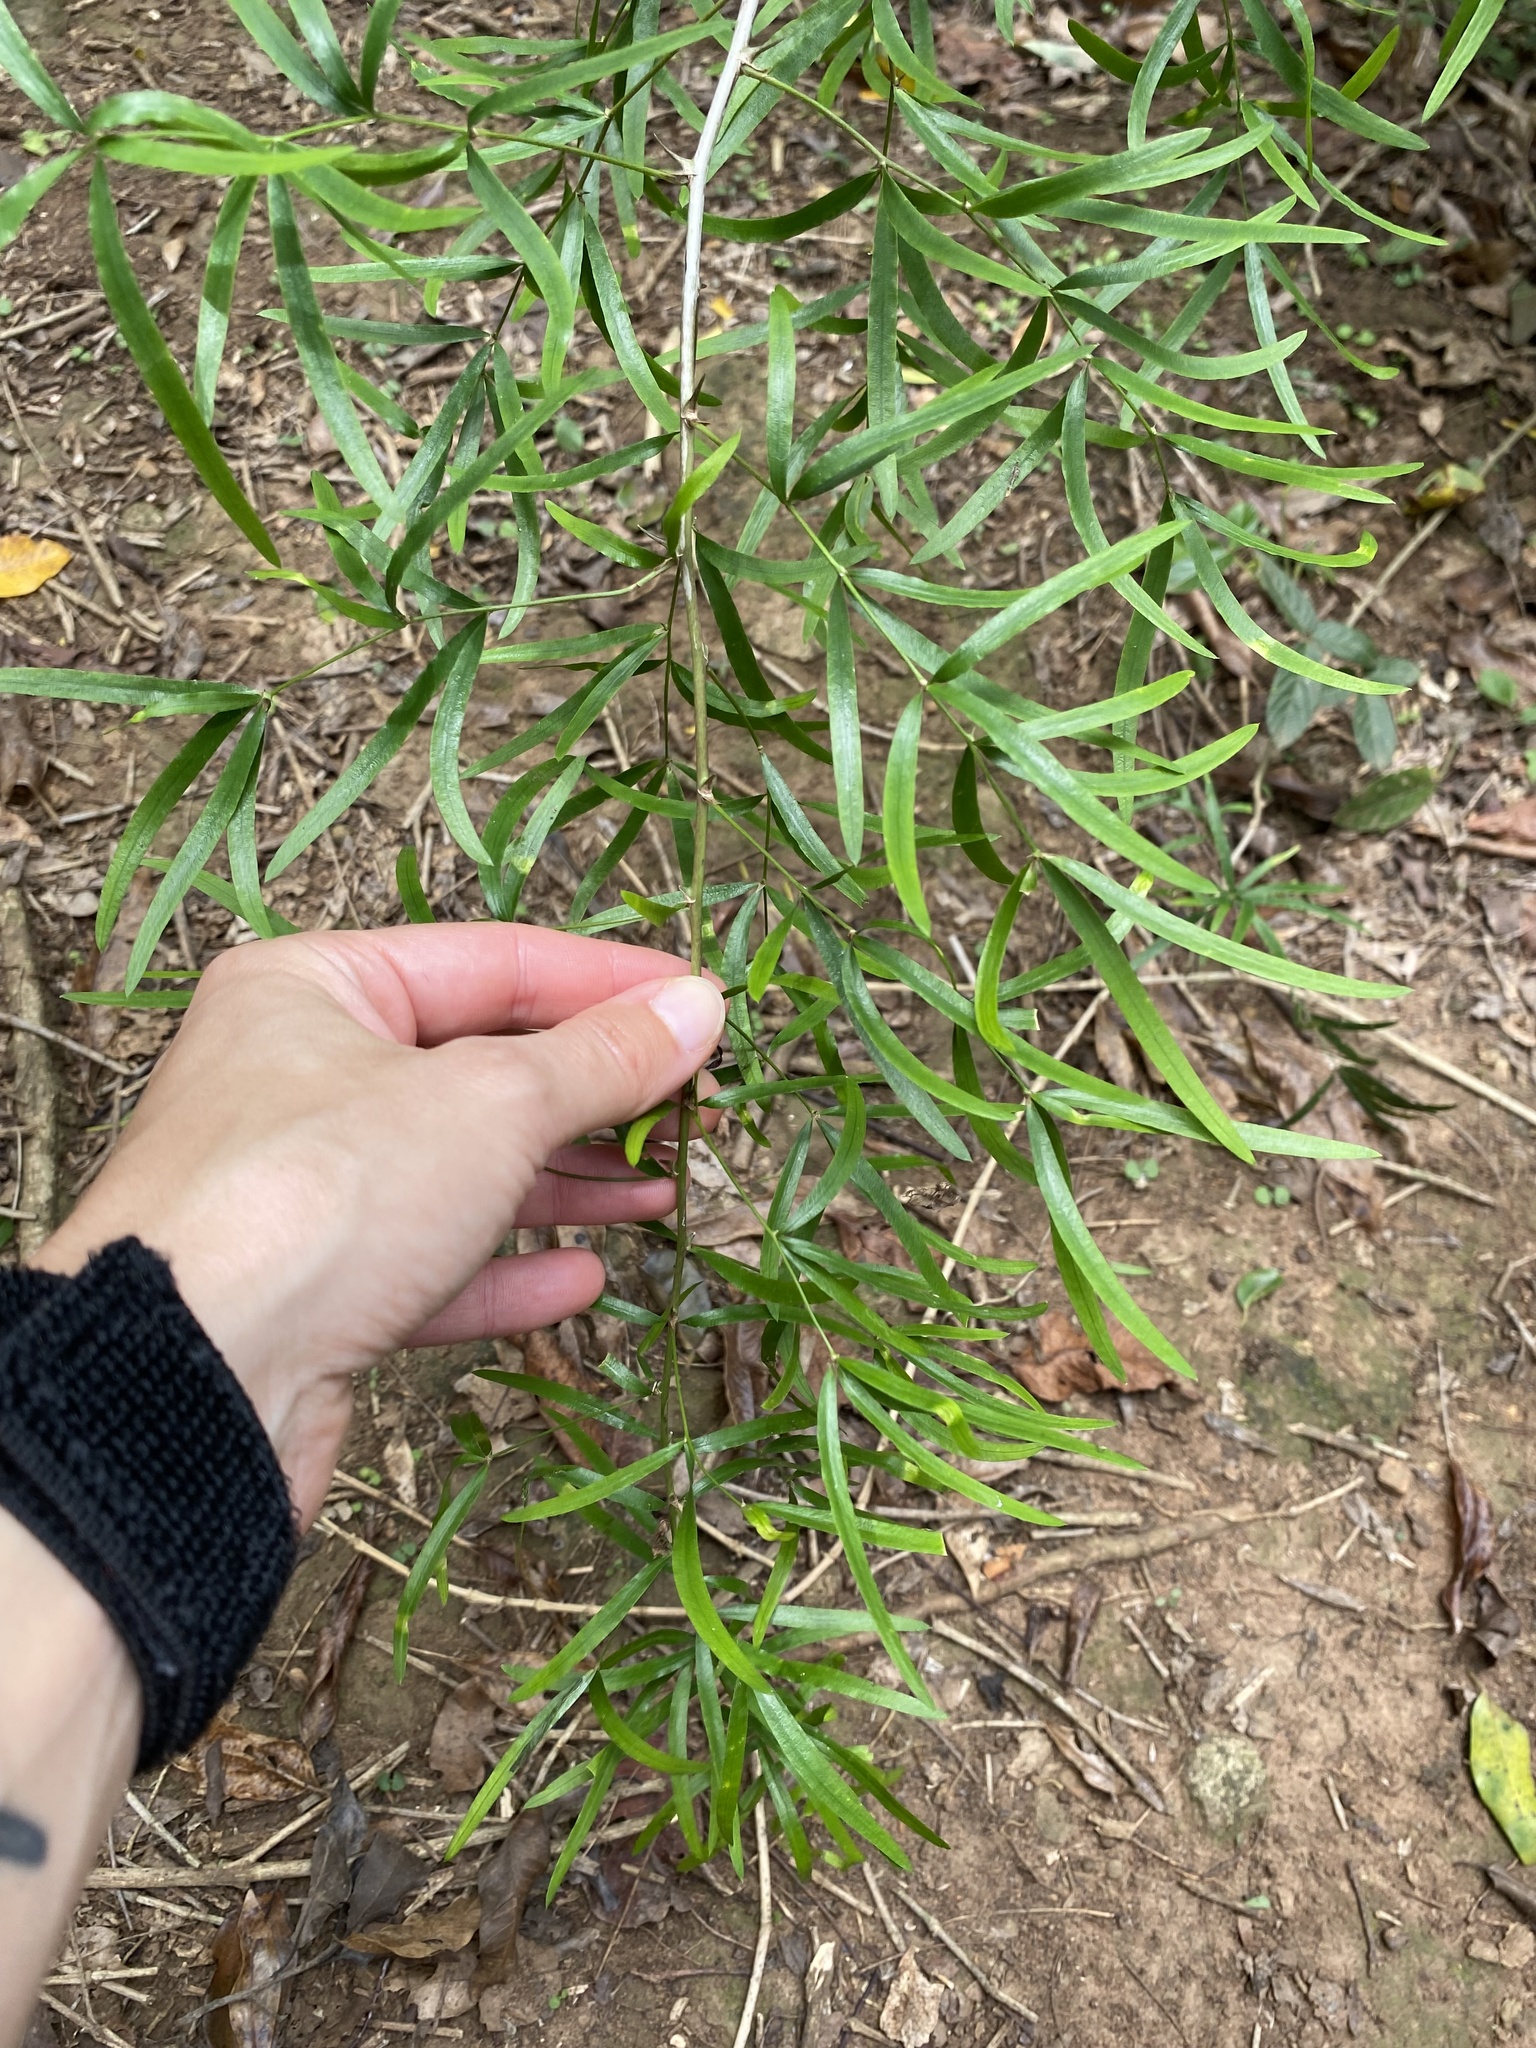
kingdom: Plantae
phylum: Tracheophyta
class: Liliopsida
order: Asparagales
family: Asparagaceae
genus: Asparagus
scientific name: Asparagus falcatus
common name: Asparagus
